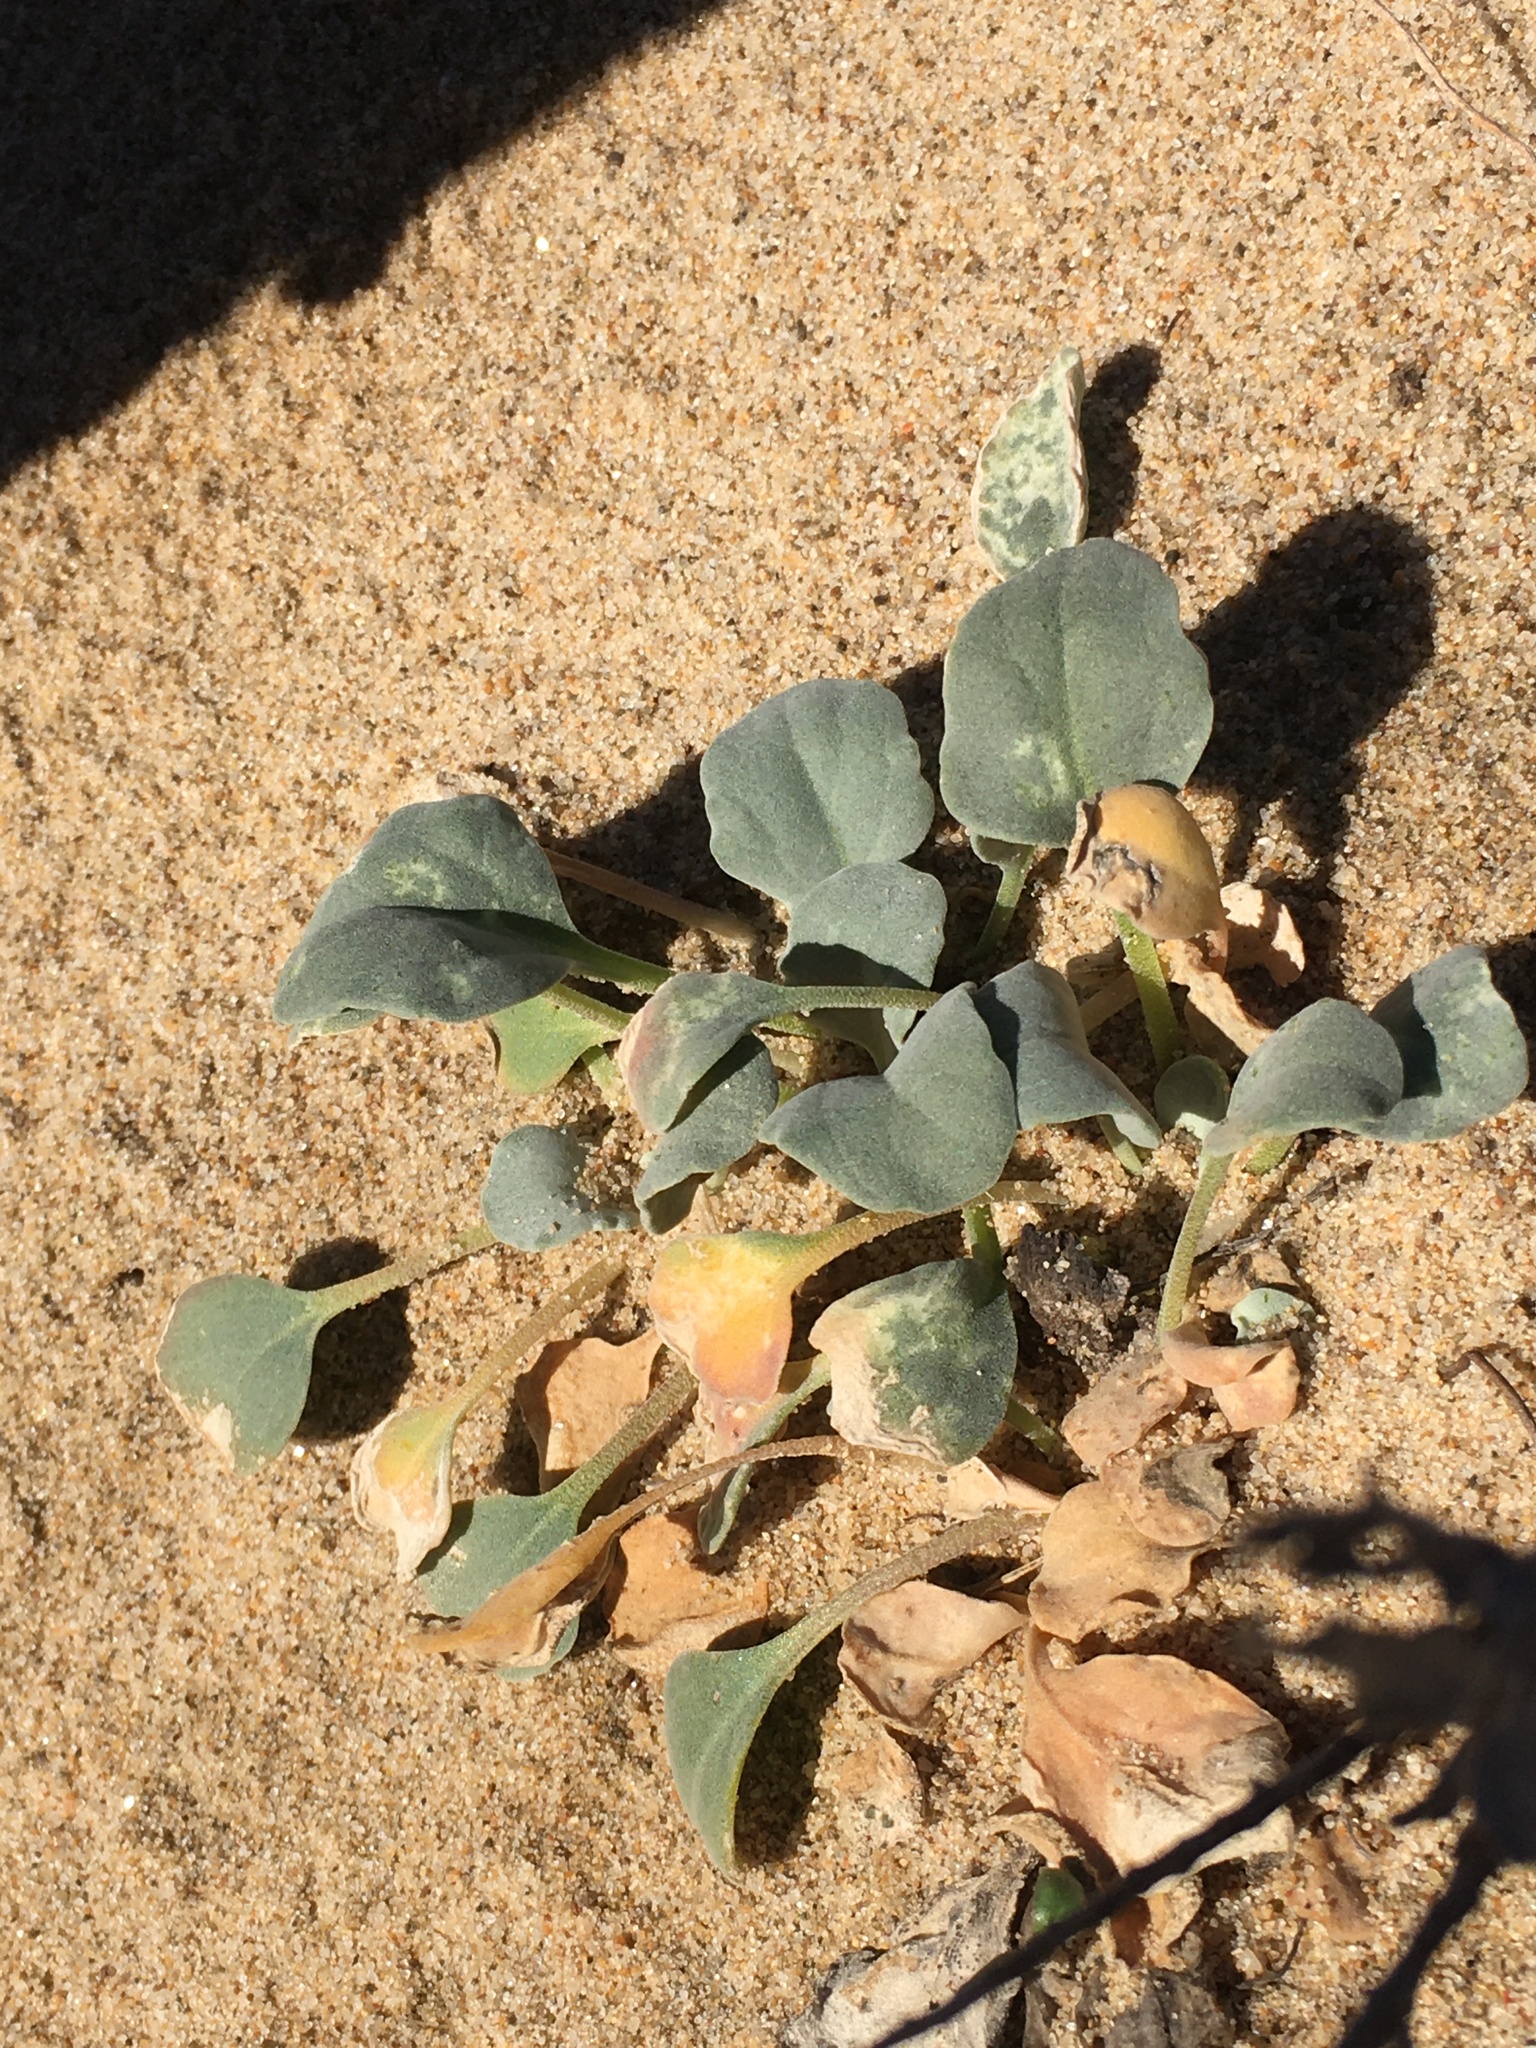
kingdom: Plantae
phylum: Tracheophyta
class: Magnoliopsida
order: Brassicales
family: Brassicaceae
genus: Dithyrea
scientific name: Dithyrea maritima
